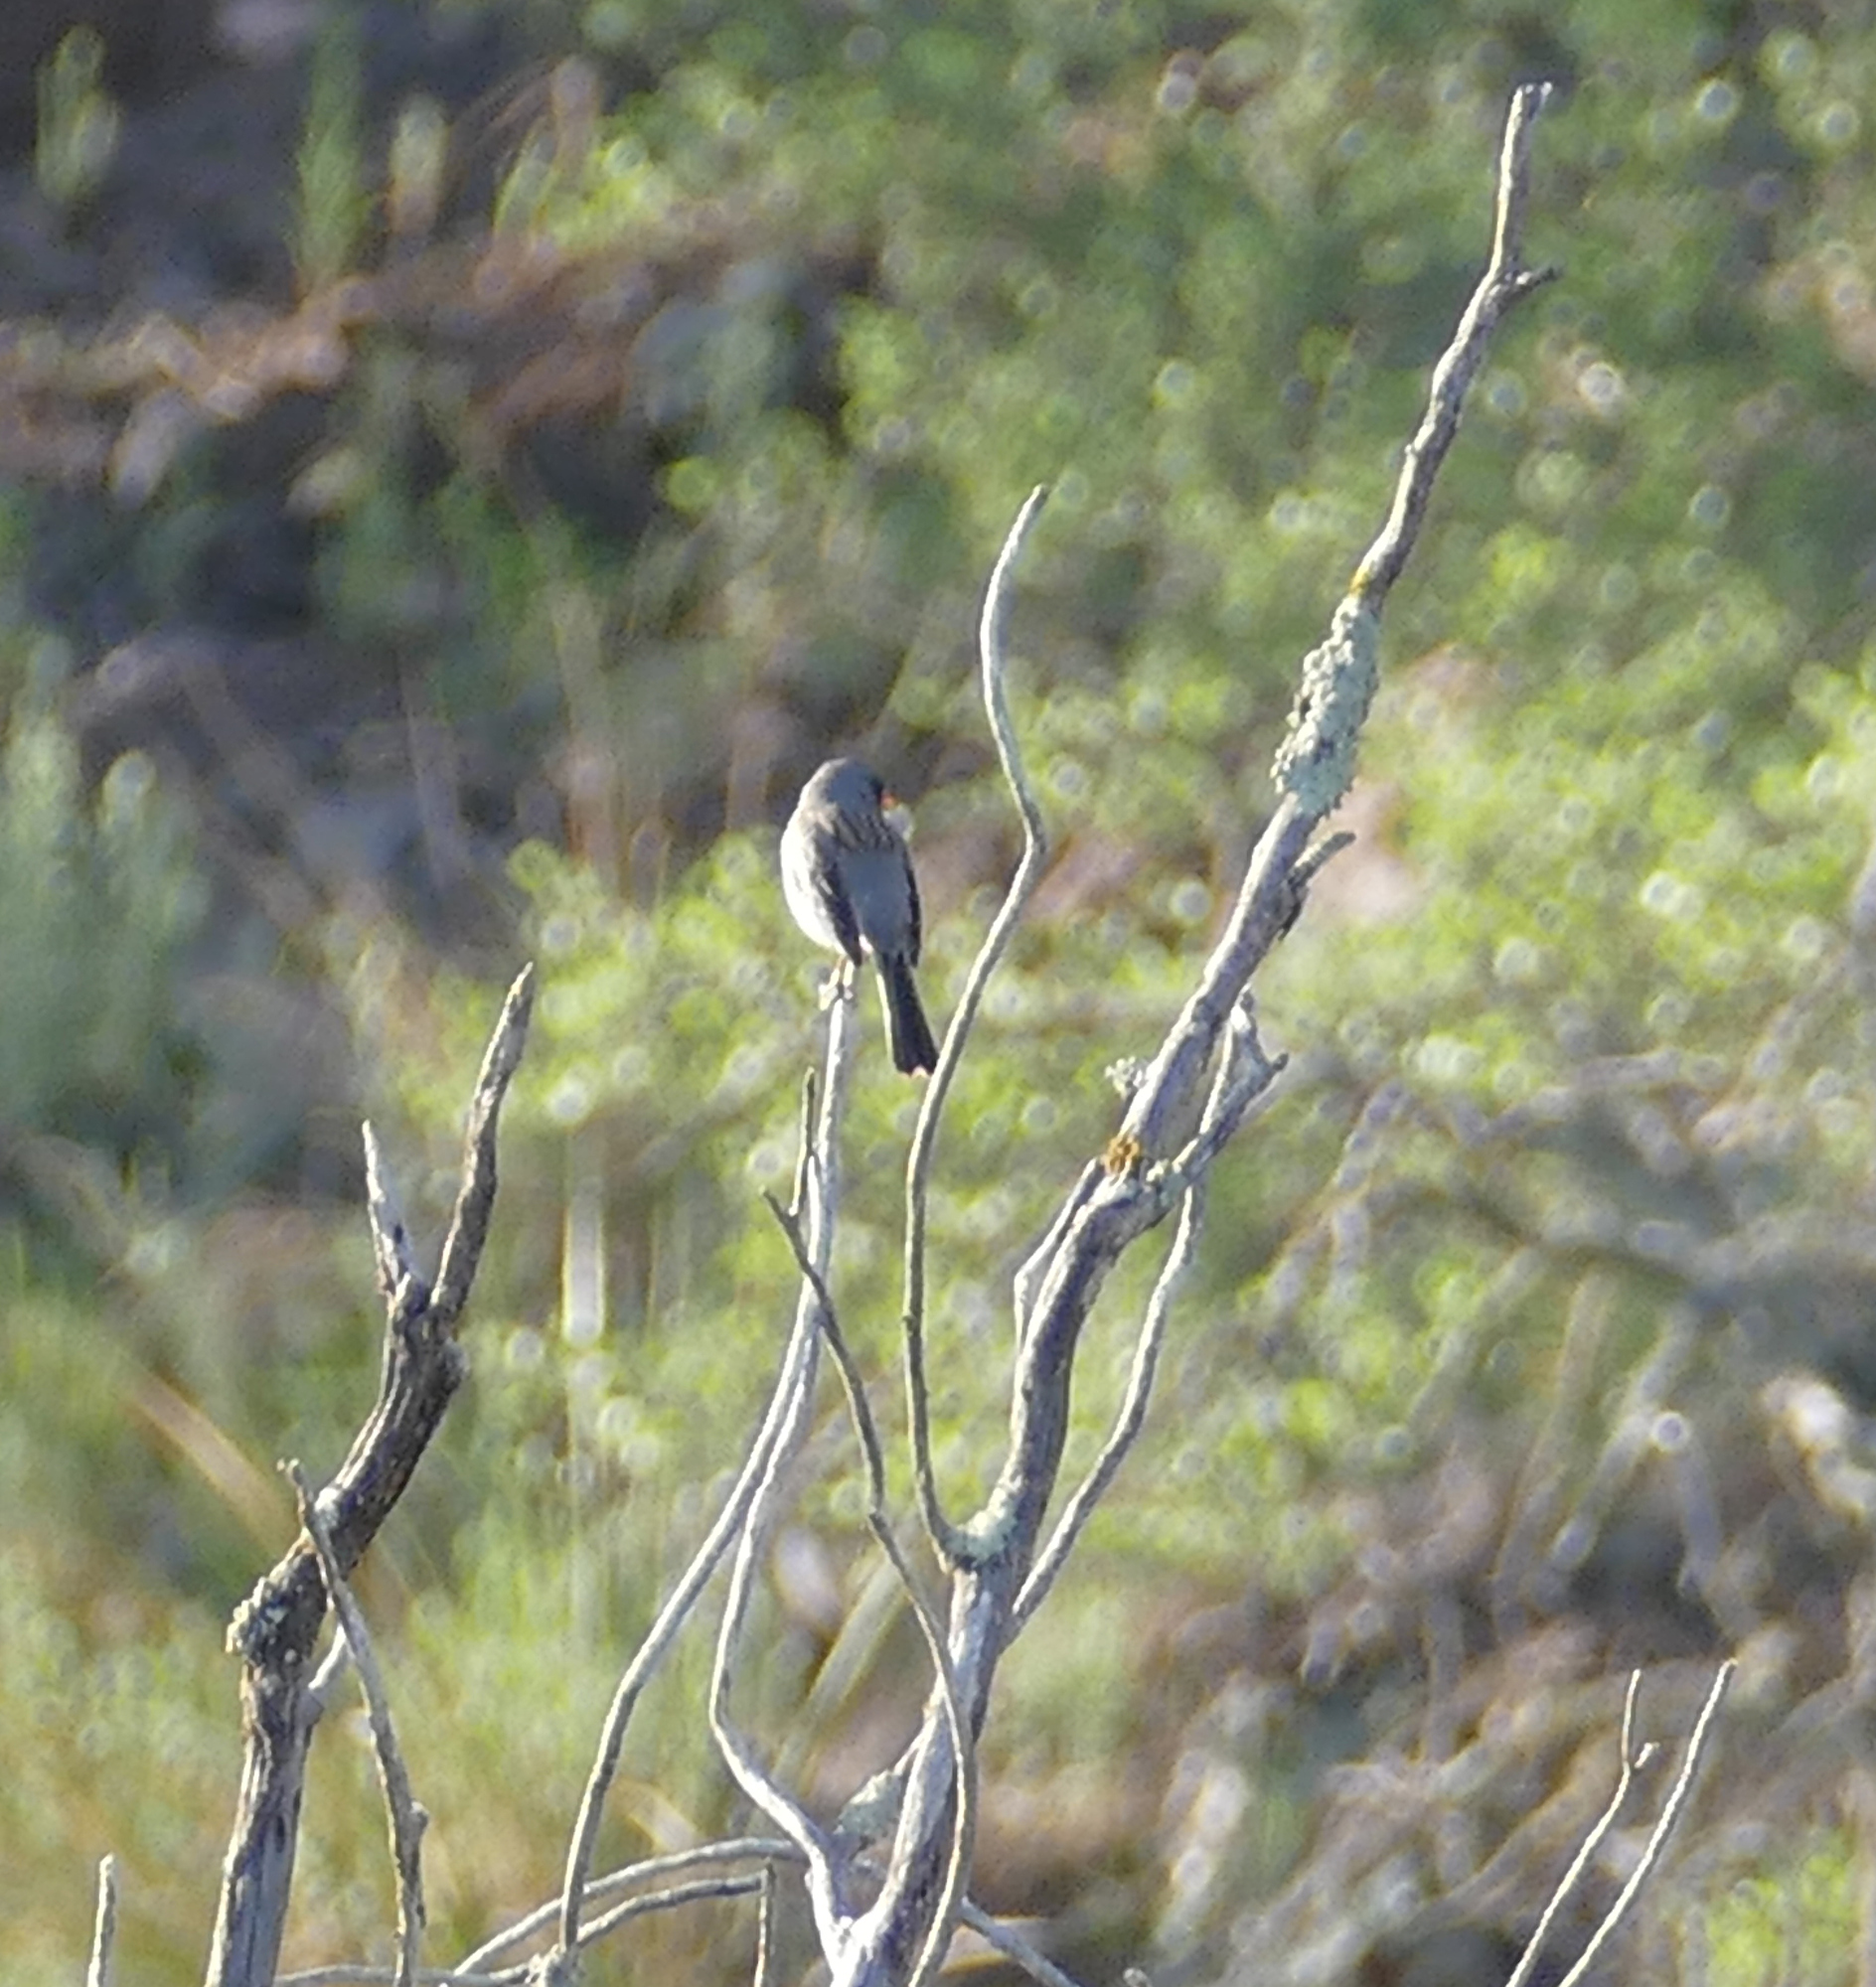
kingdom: Animalia
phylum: Chordata
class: Aves
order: Passeriformes
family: Passerellidae
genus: Spizella
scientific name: Spizella atrogularis
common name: Black-chinned sparrow
